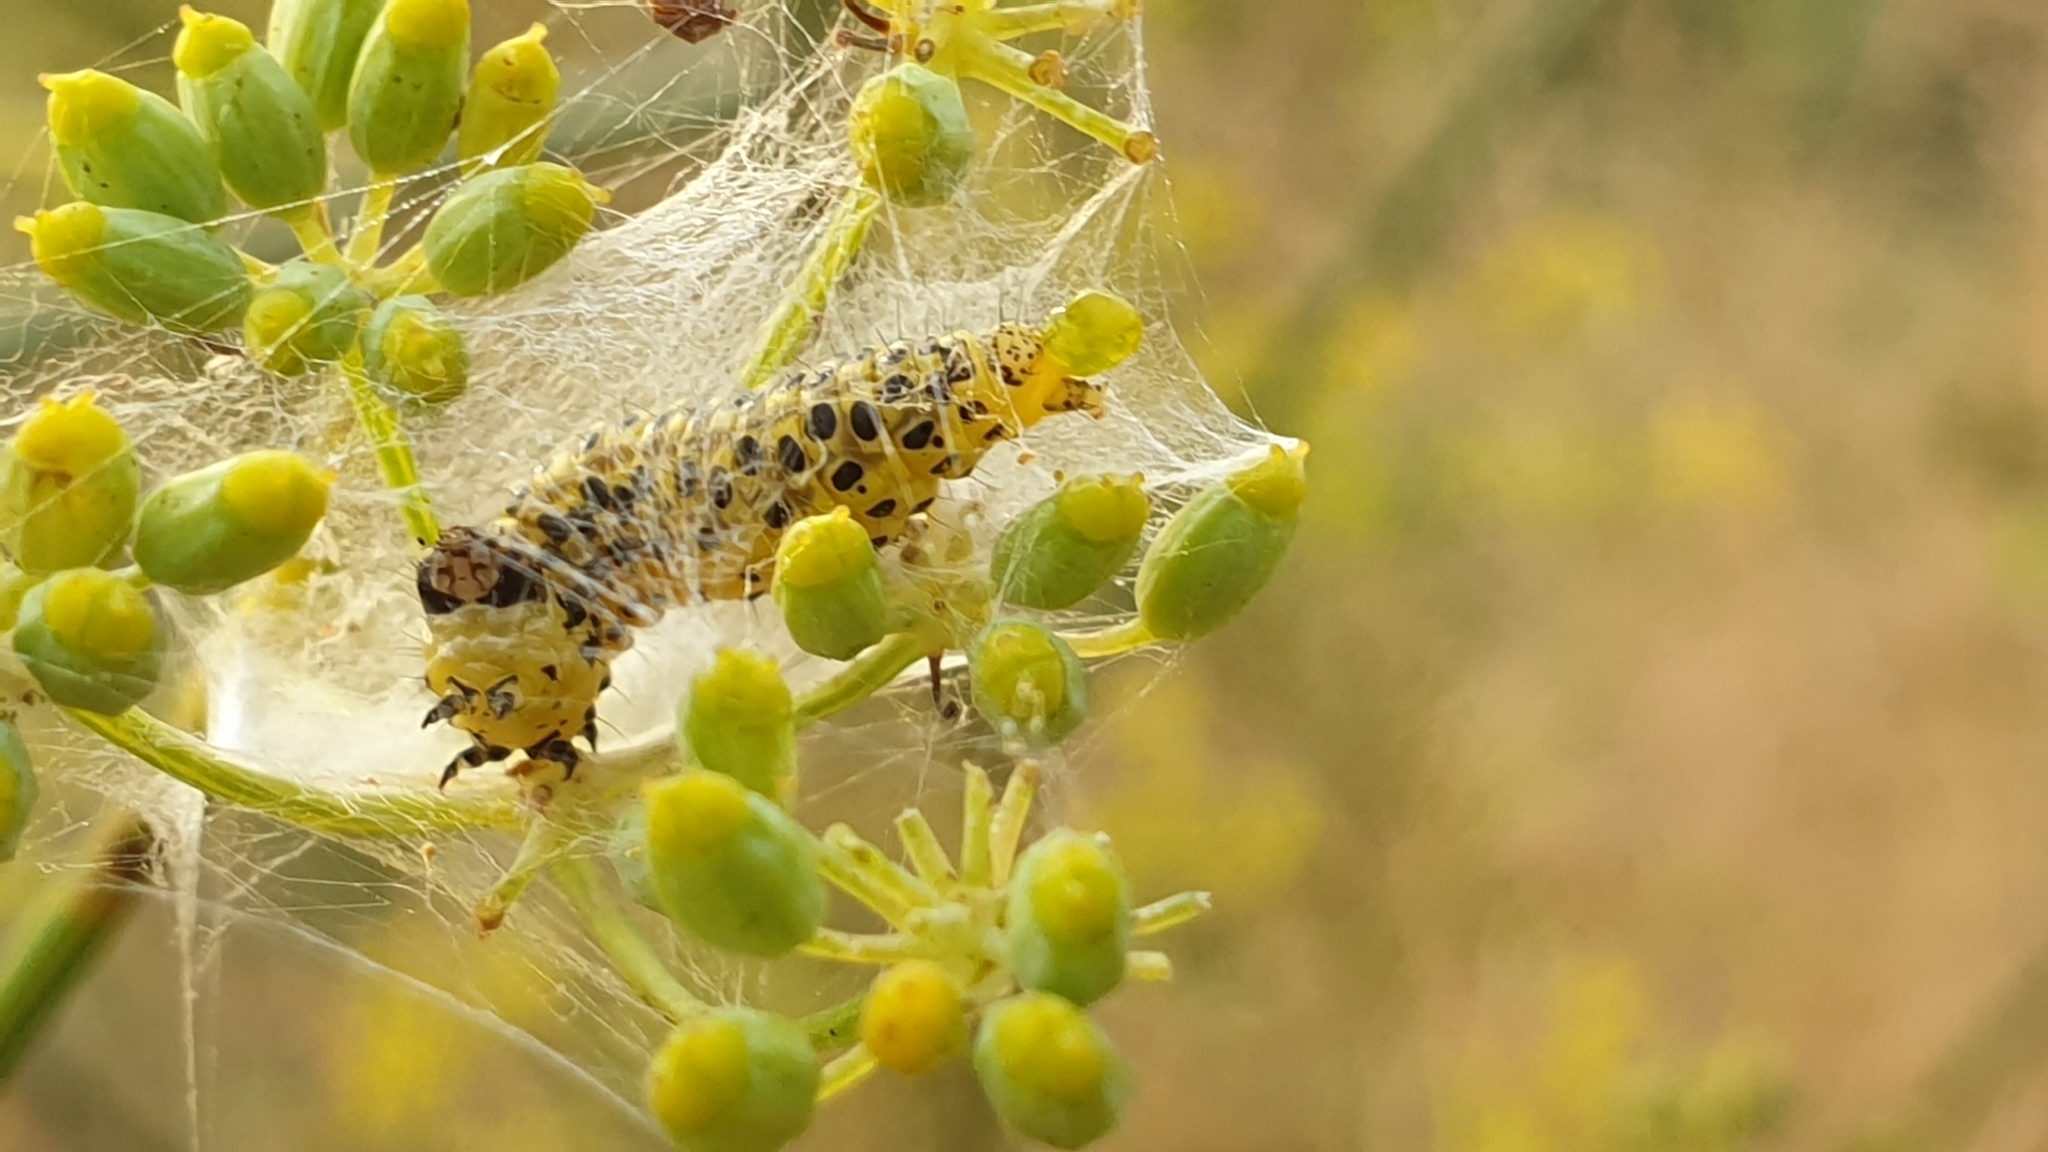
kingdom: Animalia
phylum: Arthropoda
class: Insecta
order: Lepidoptera
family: Crambidae
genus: Sitochroa
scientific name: Sitochroa palealis
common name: Greenish-yellow sitochroa moth
